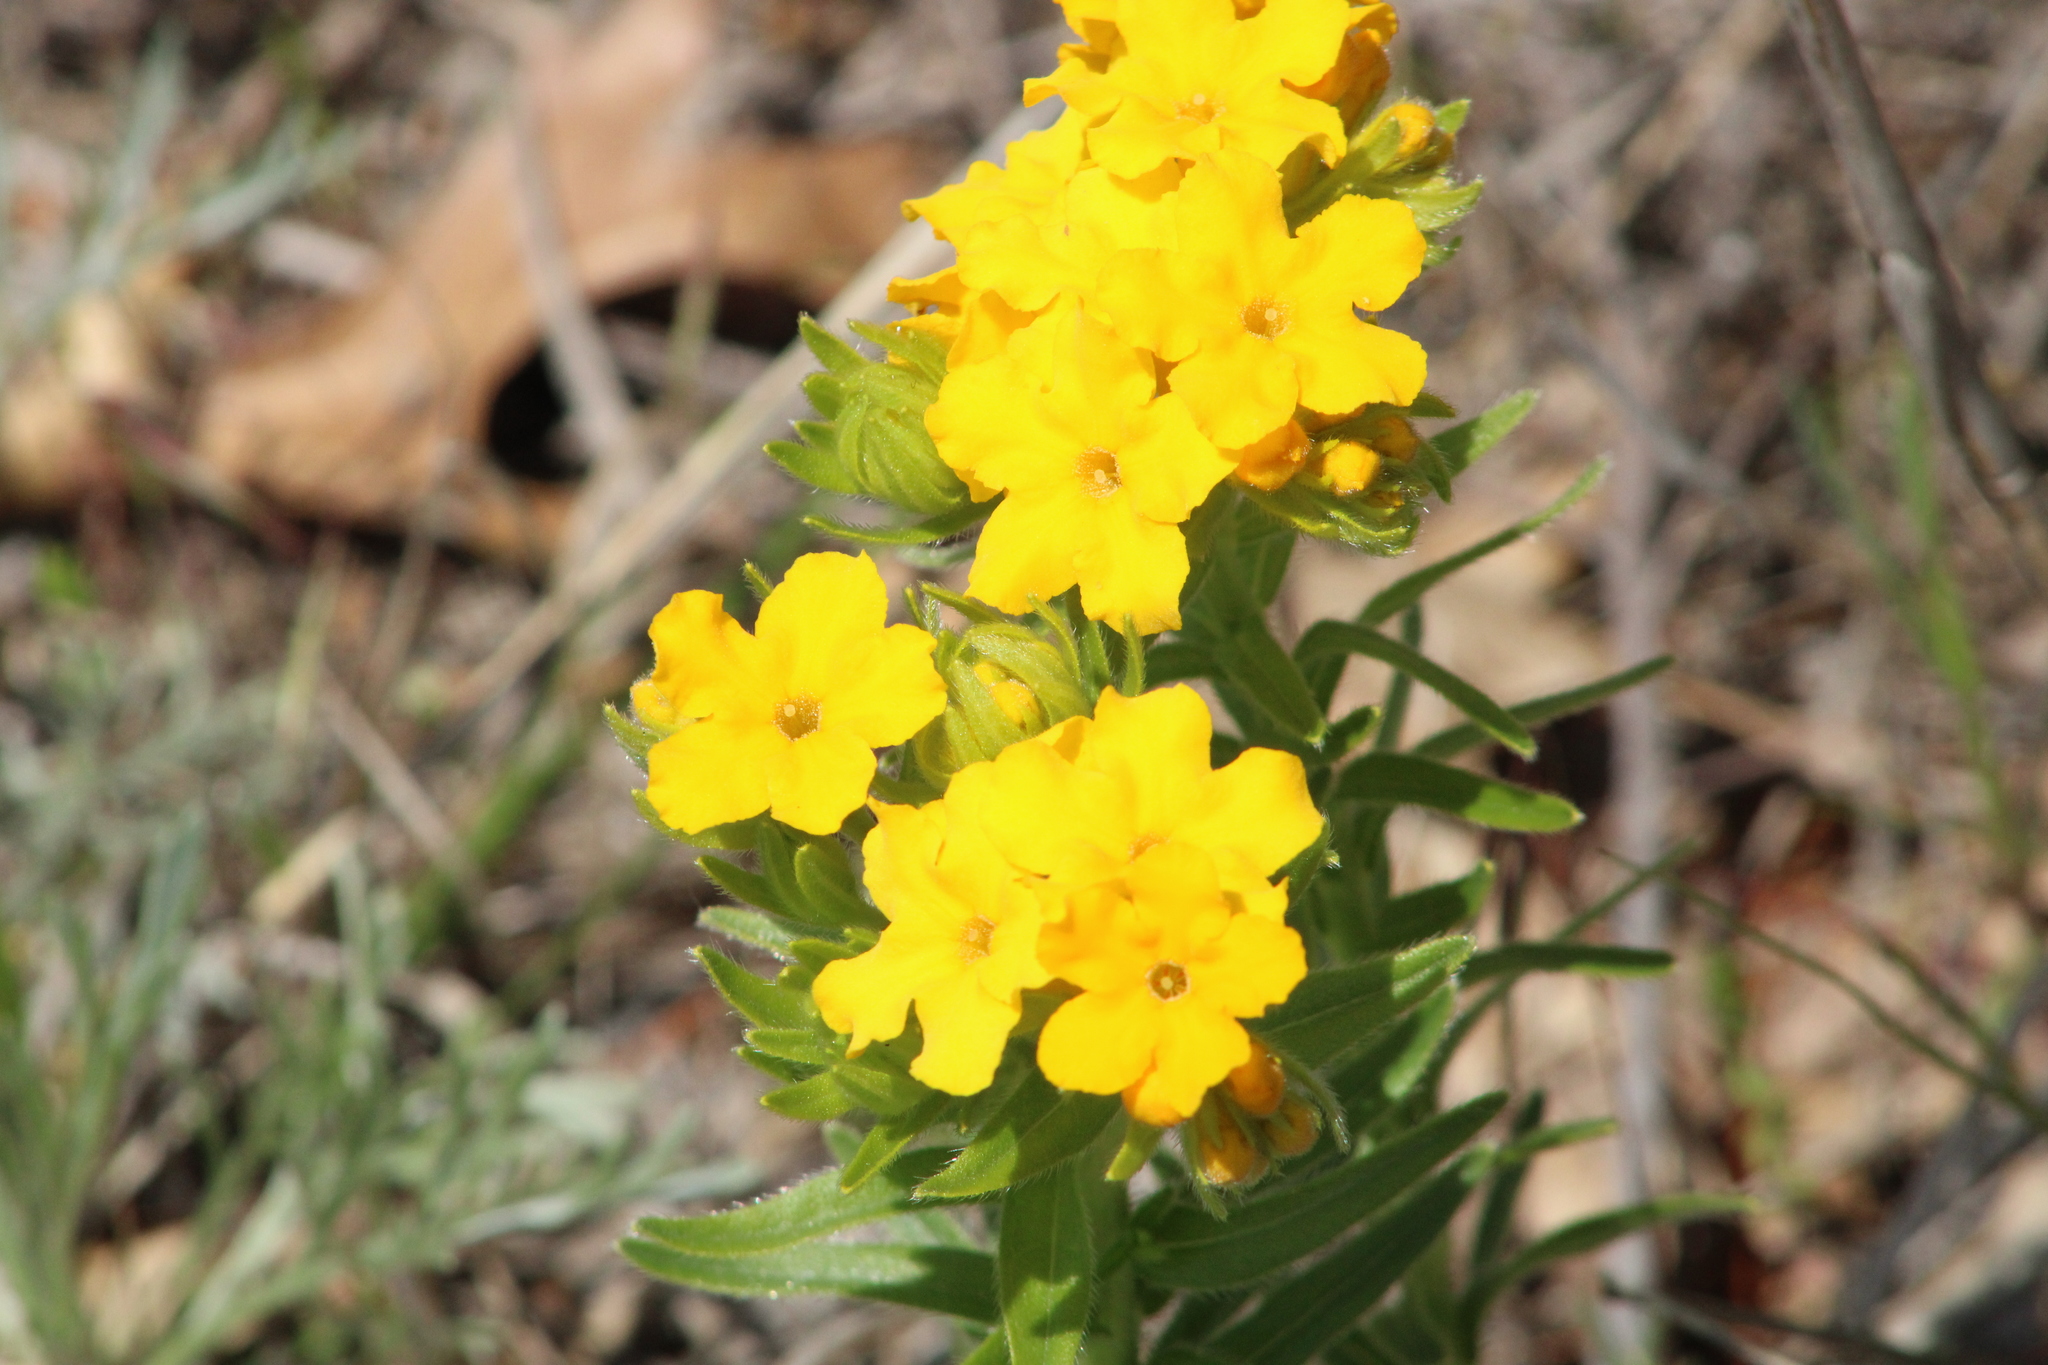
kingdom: Plantae
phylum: Tracheophyta
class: Magnoliopsida
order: Boraginales
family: Boraginaceae
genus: Lithospermum
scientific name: Lithospermum caroliniense
